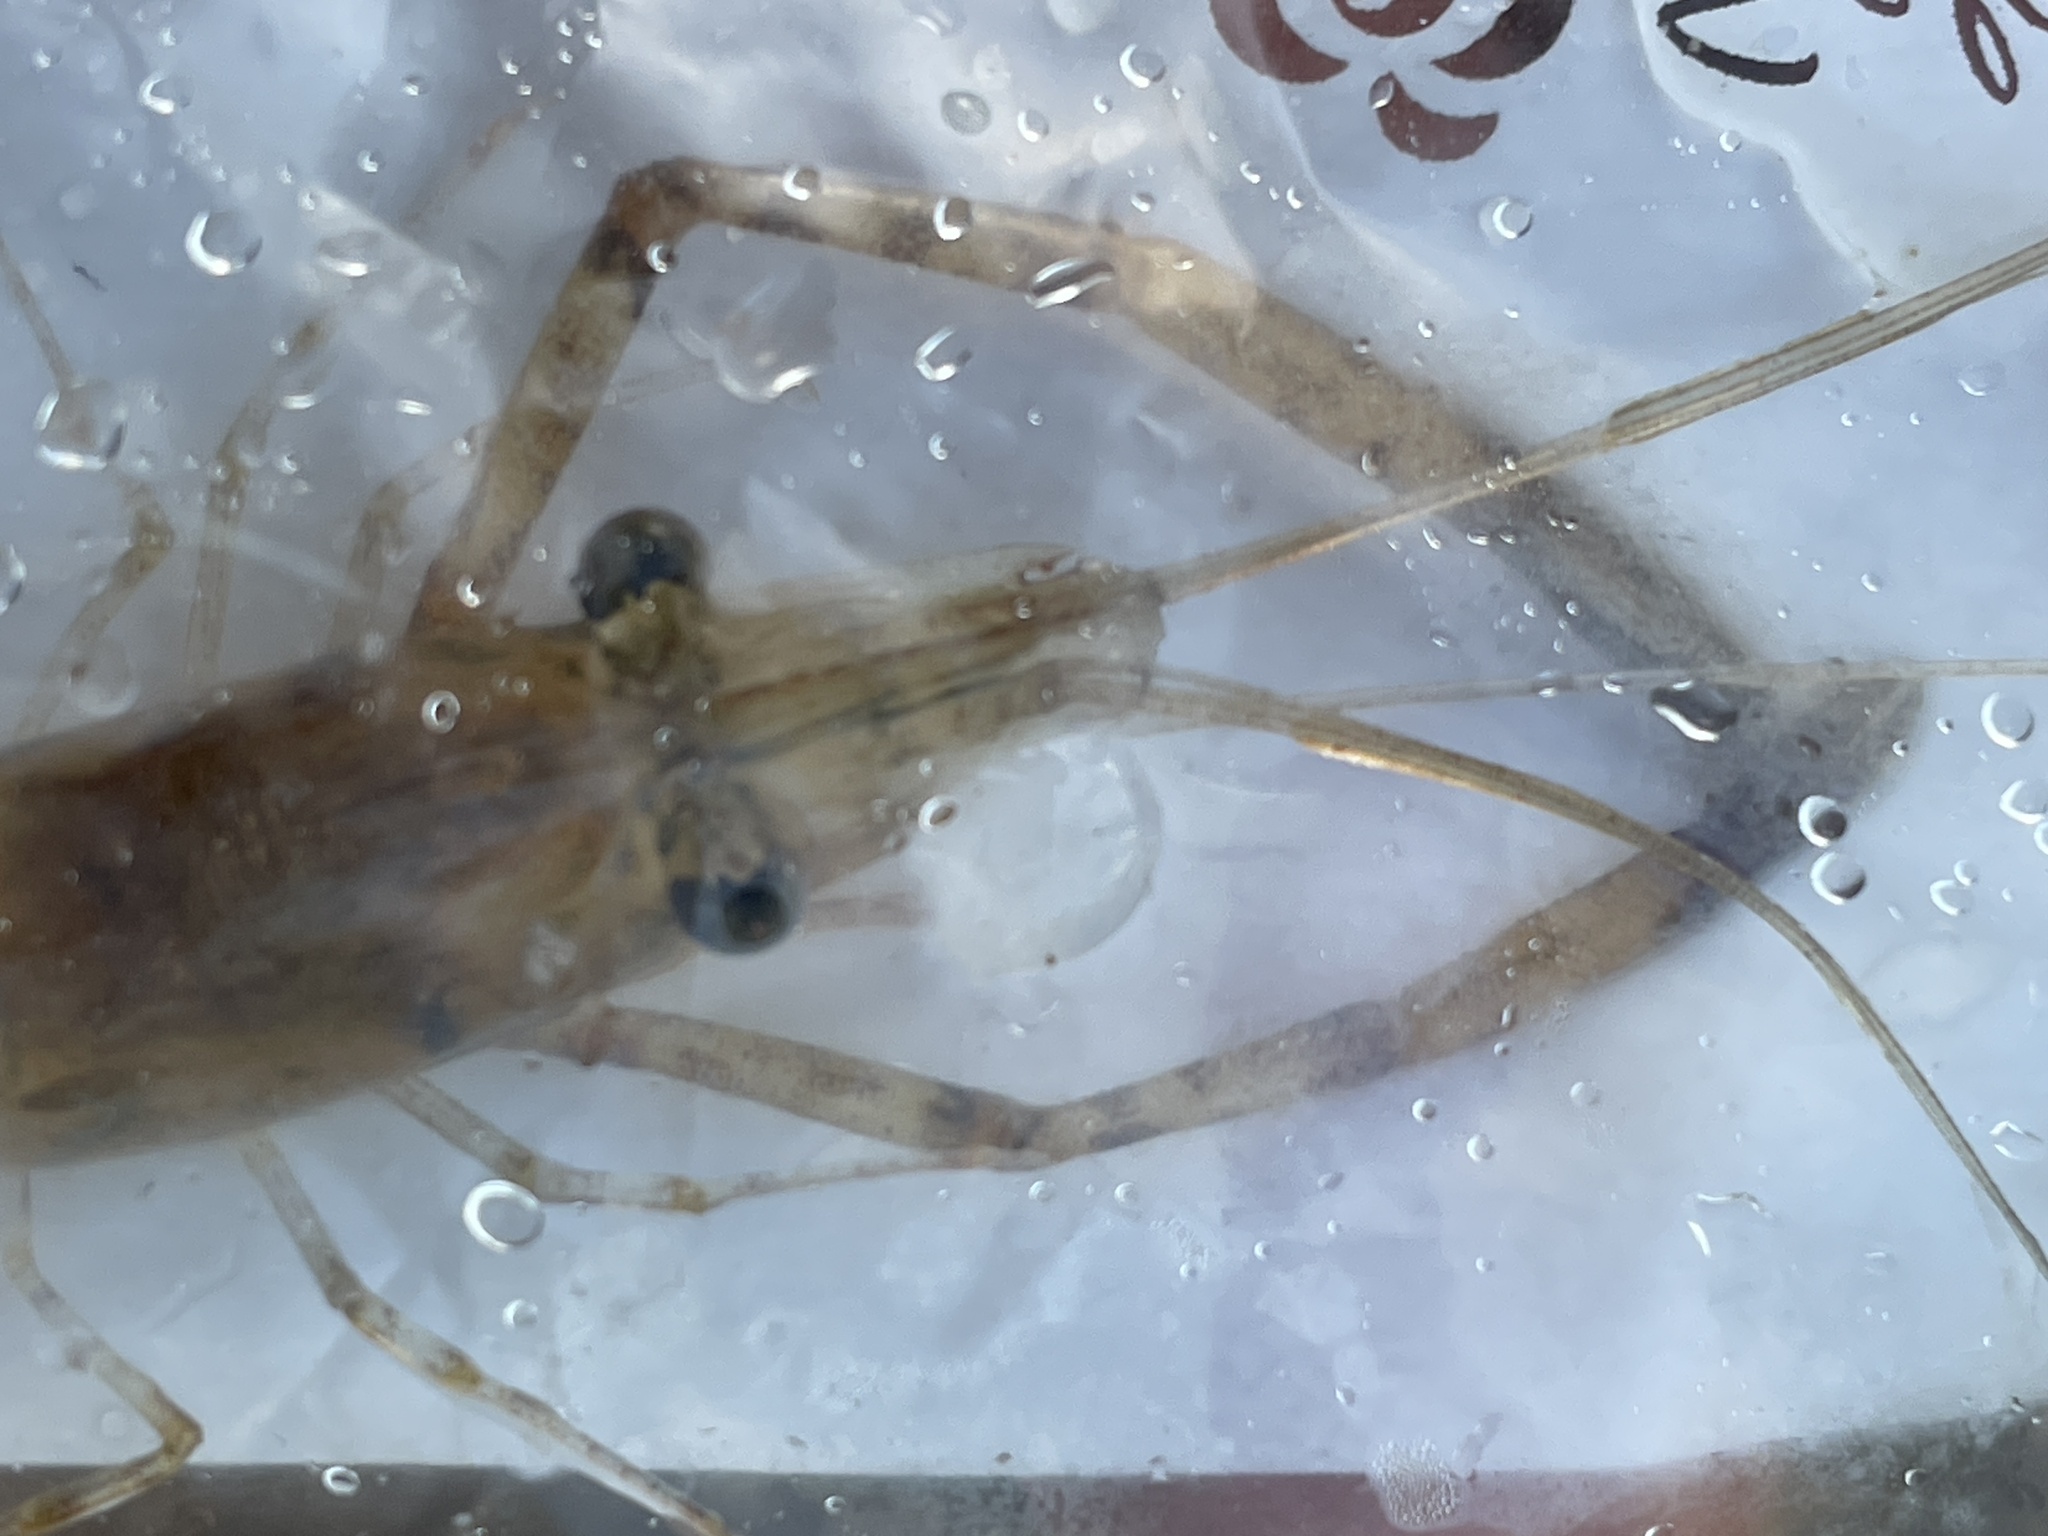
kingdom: Animalia
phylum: Arthropoda
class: Malacostraca
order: Decapoda
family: Palaemonidae
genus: Macrobrachium
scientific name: Macrobrachium australiense
